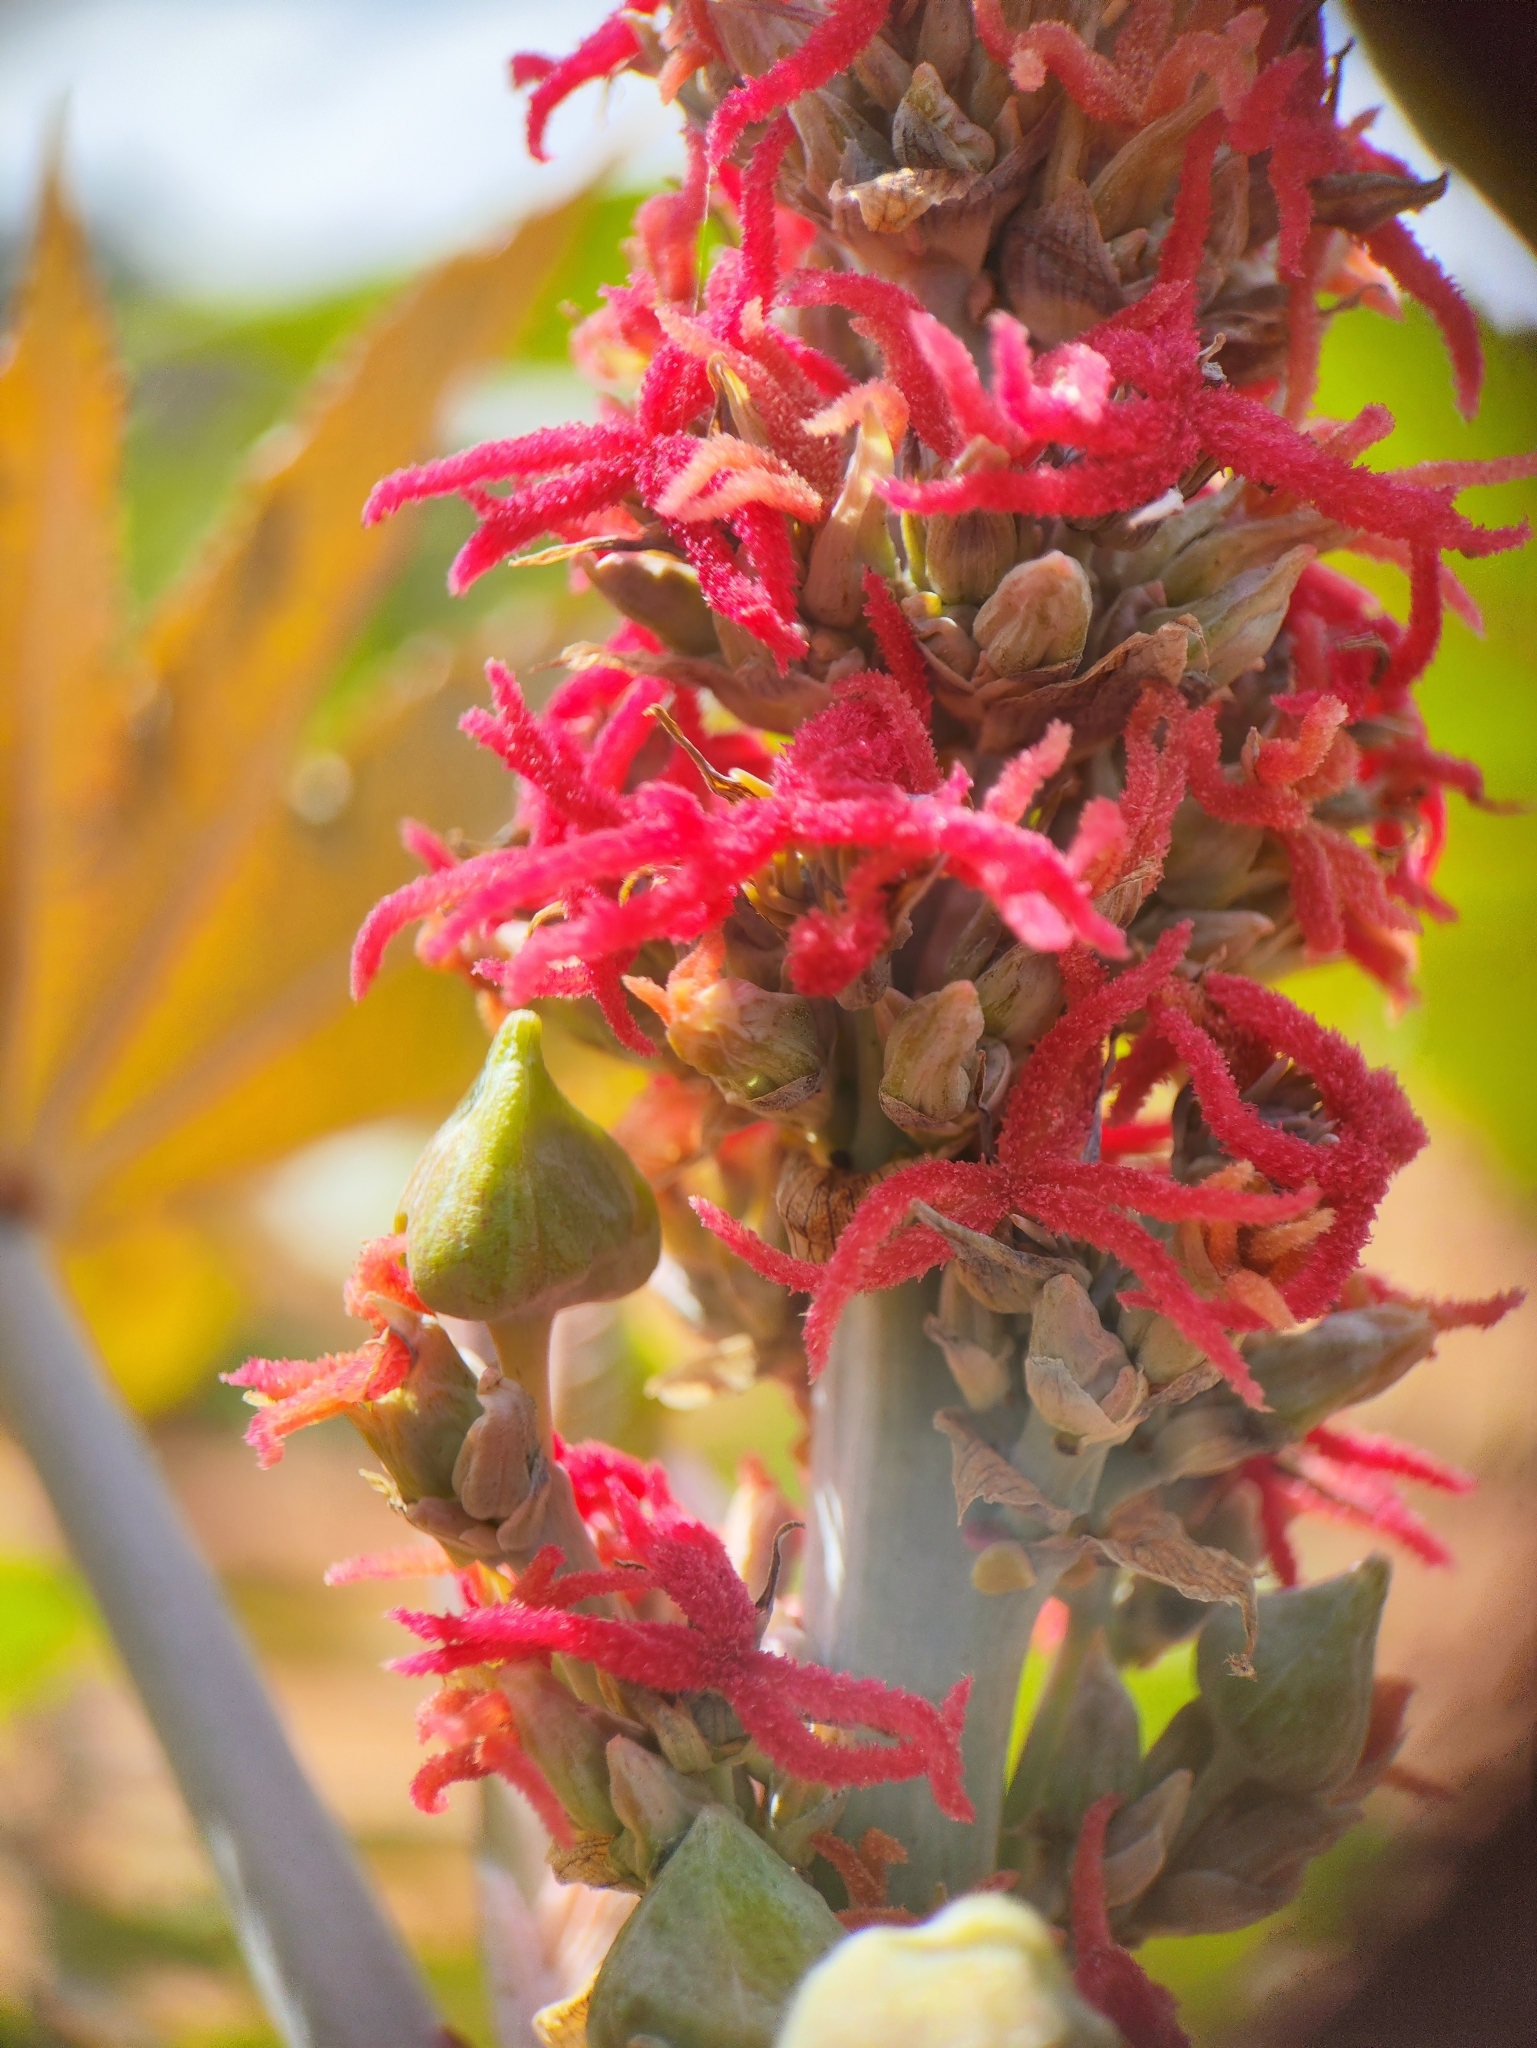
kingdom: Plantae
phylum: Tracheophyta
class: Magnoliopsida
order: Malpighiales
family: Euphorbiaceae
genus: Ricinus
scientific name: Ricinus communis
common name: Castor-oil-plant
